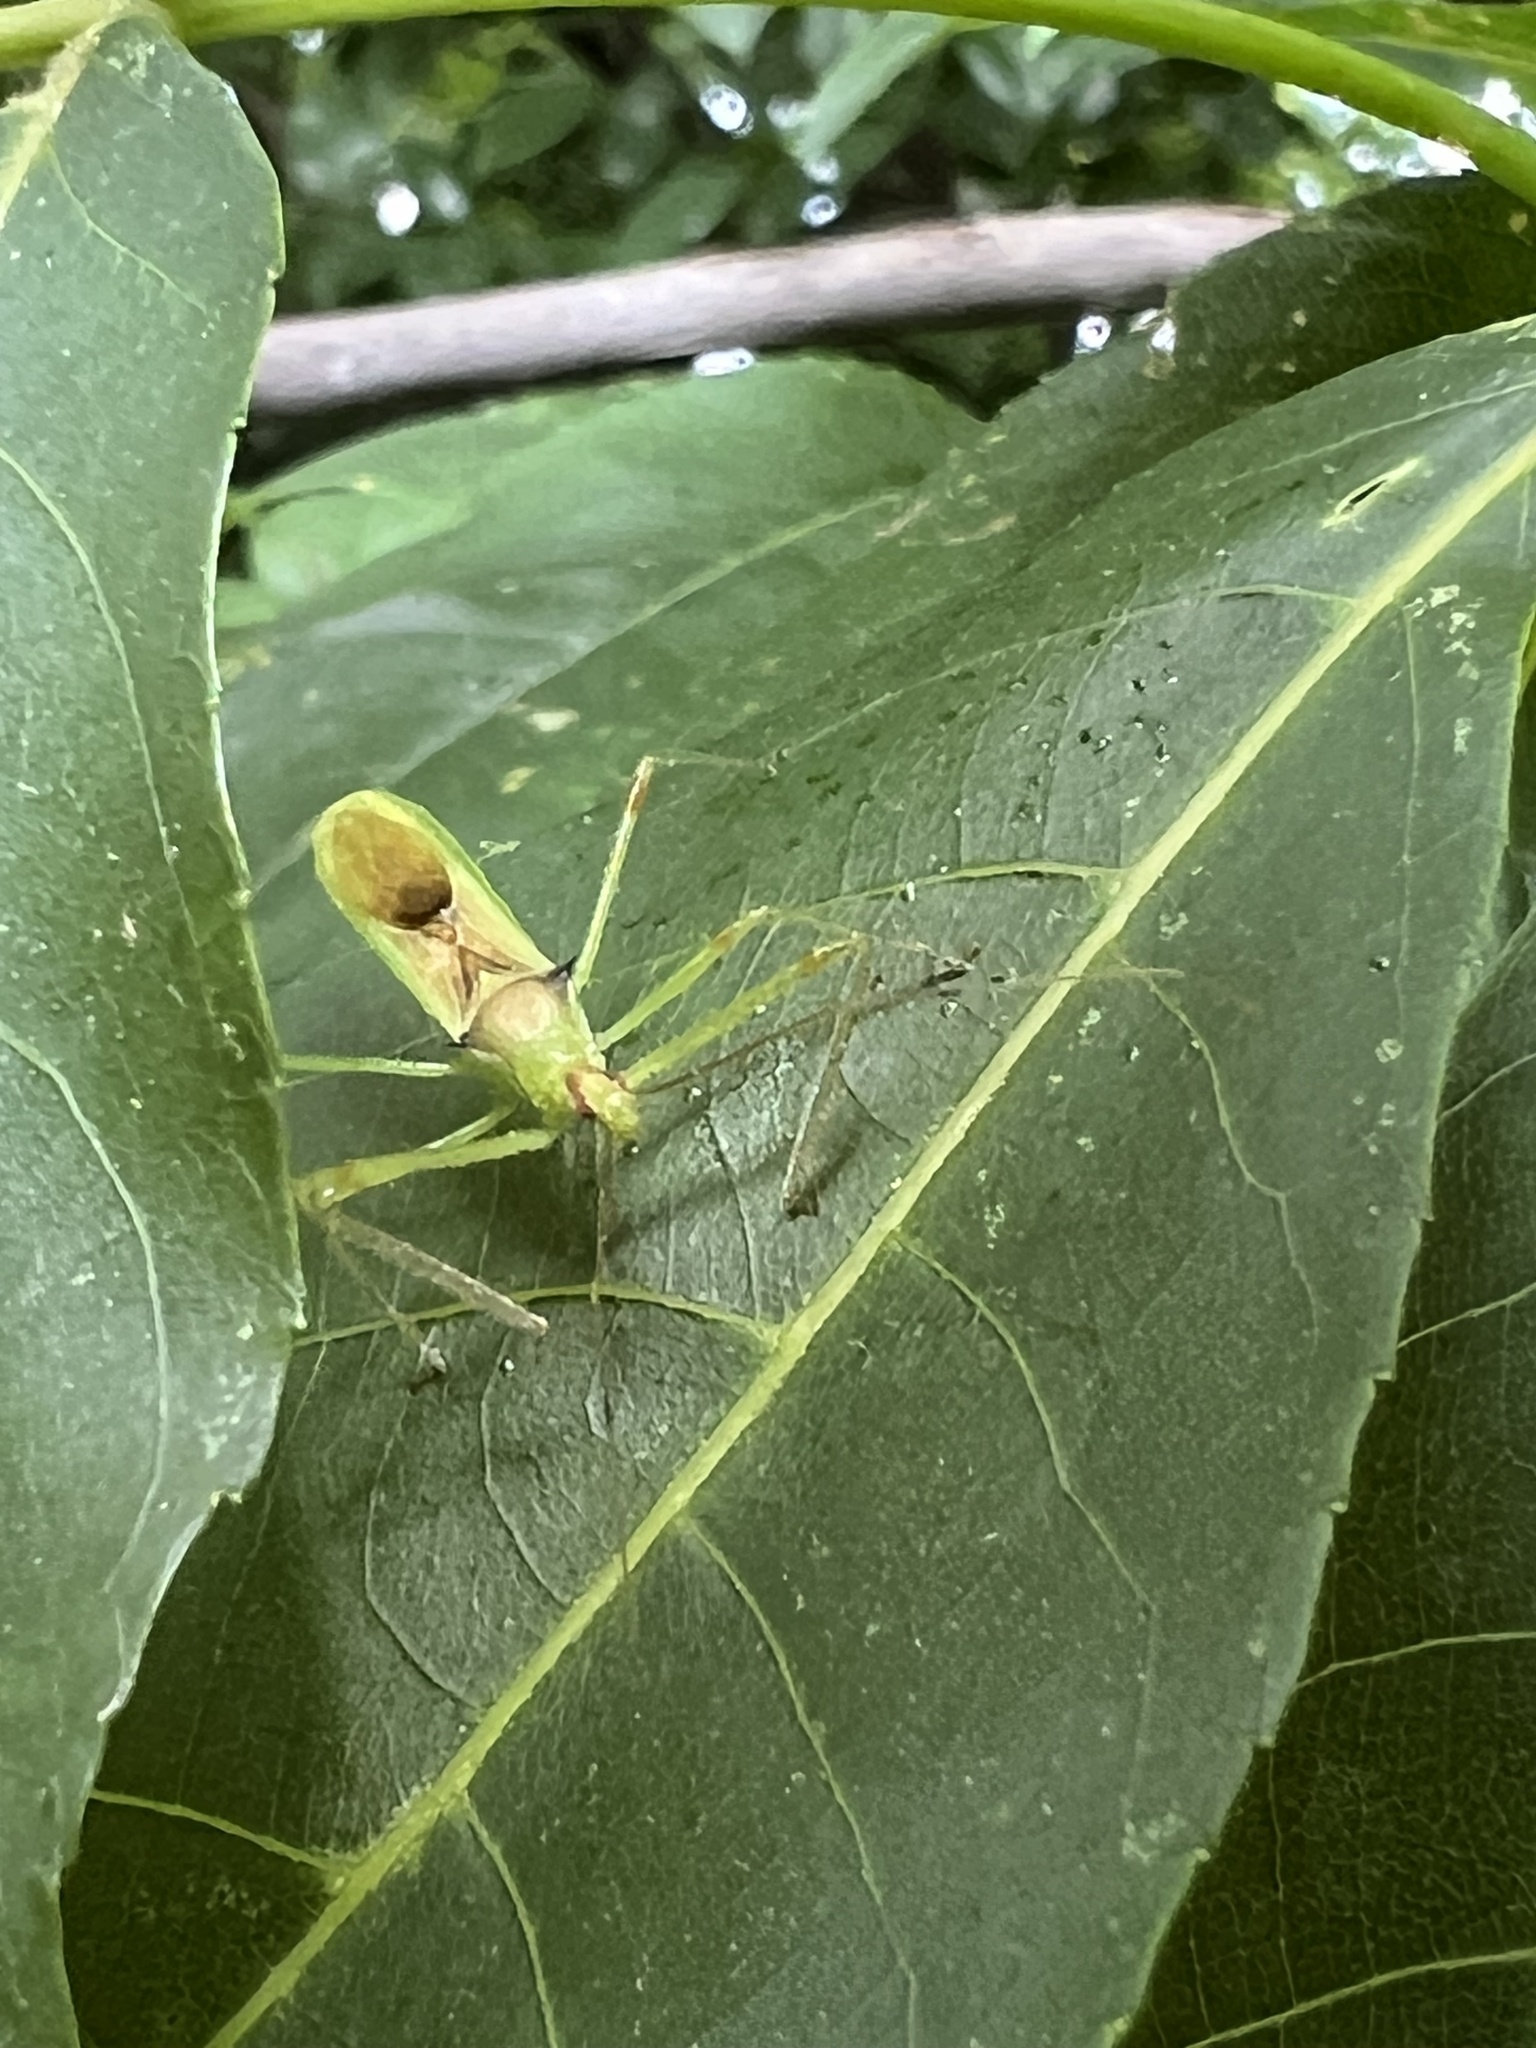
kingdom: Animalia
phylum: Arthropoda
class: Insecta
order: Hemiptera
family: Reduviidae
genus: Zelus
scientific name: Zelus luridus
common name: Pale green assassin bug
